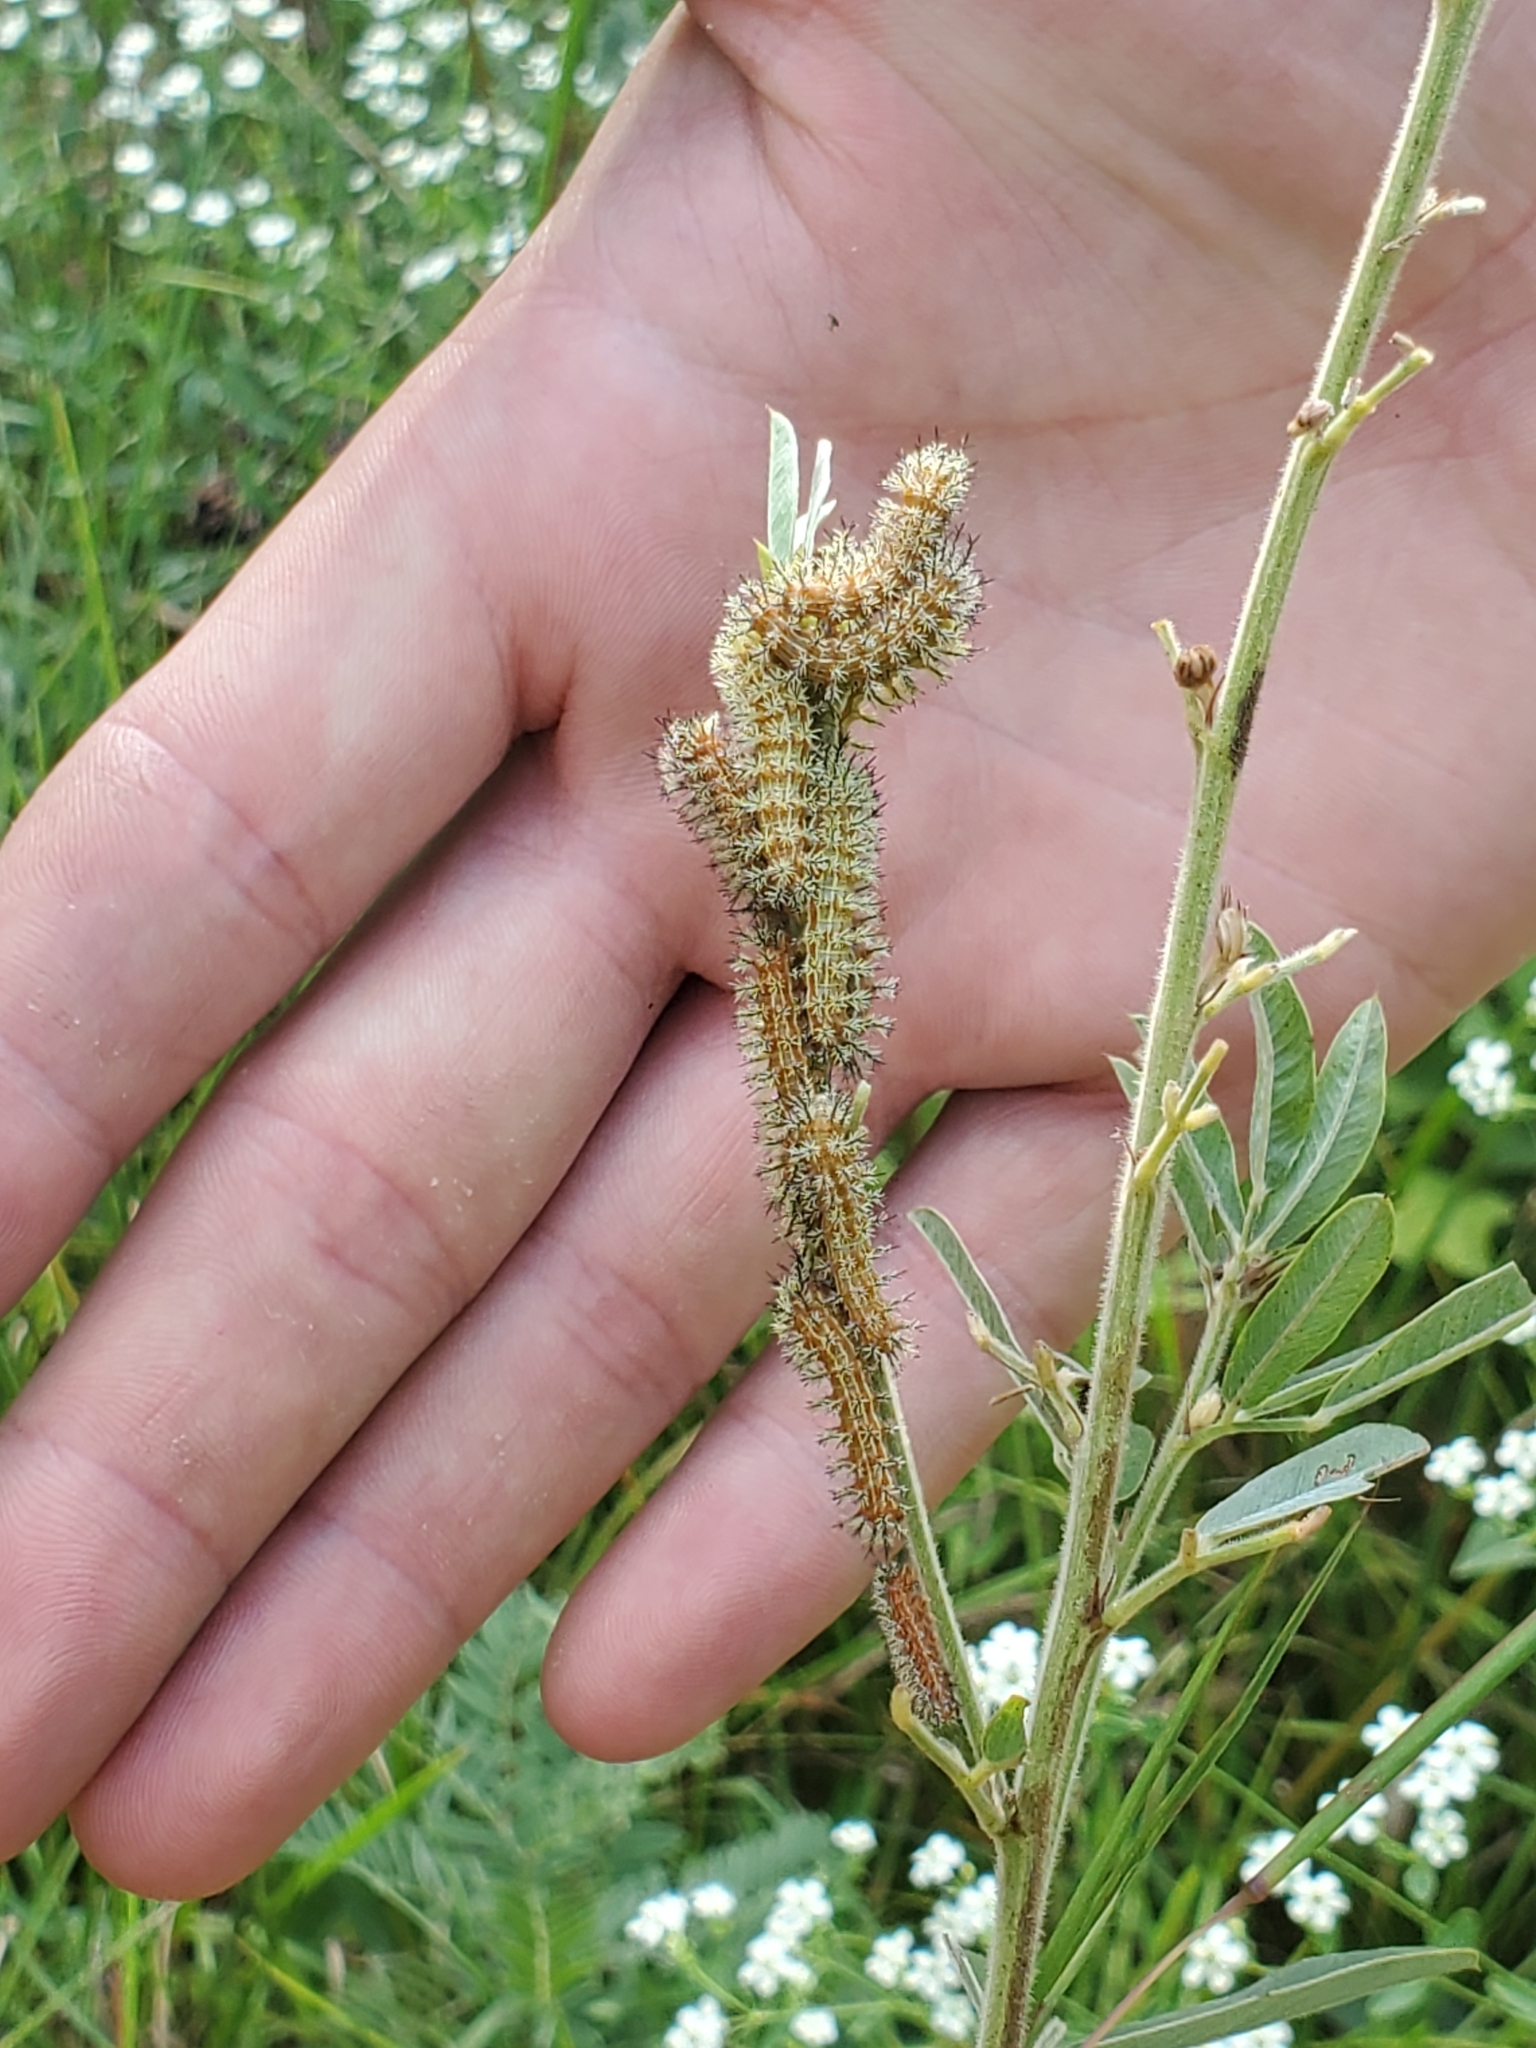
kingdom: Animalia
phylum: Arthropoda
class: Insecta
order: Lepidoptera
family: Saturniidae
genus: Automeris
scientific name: Automeris io
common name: Io moth
